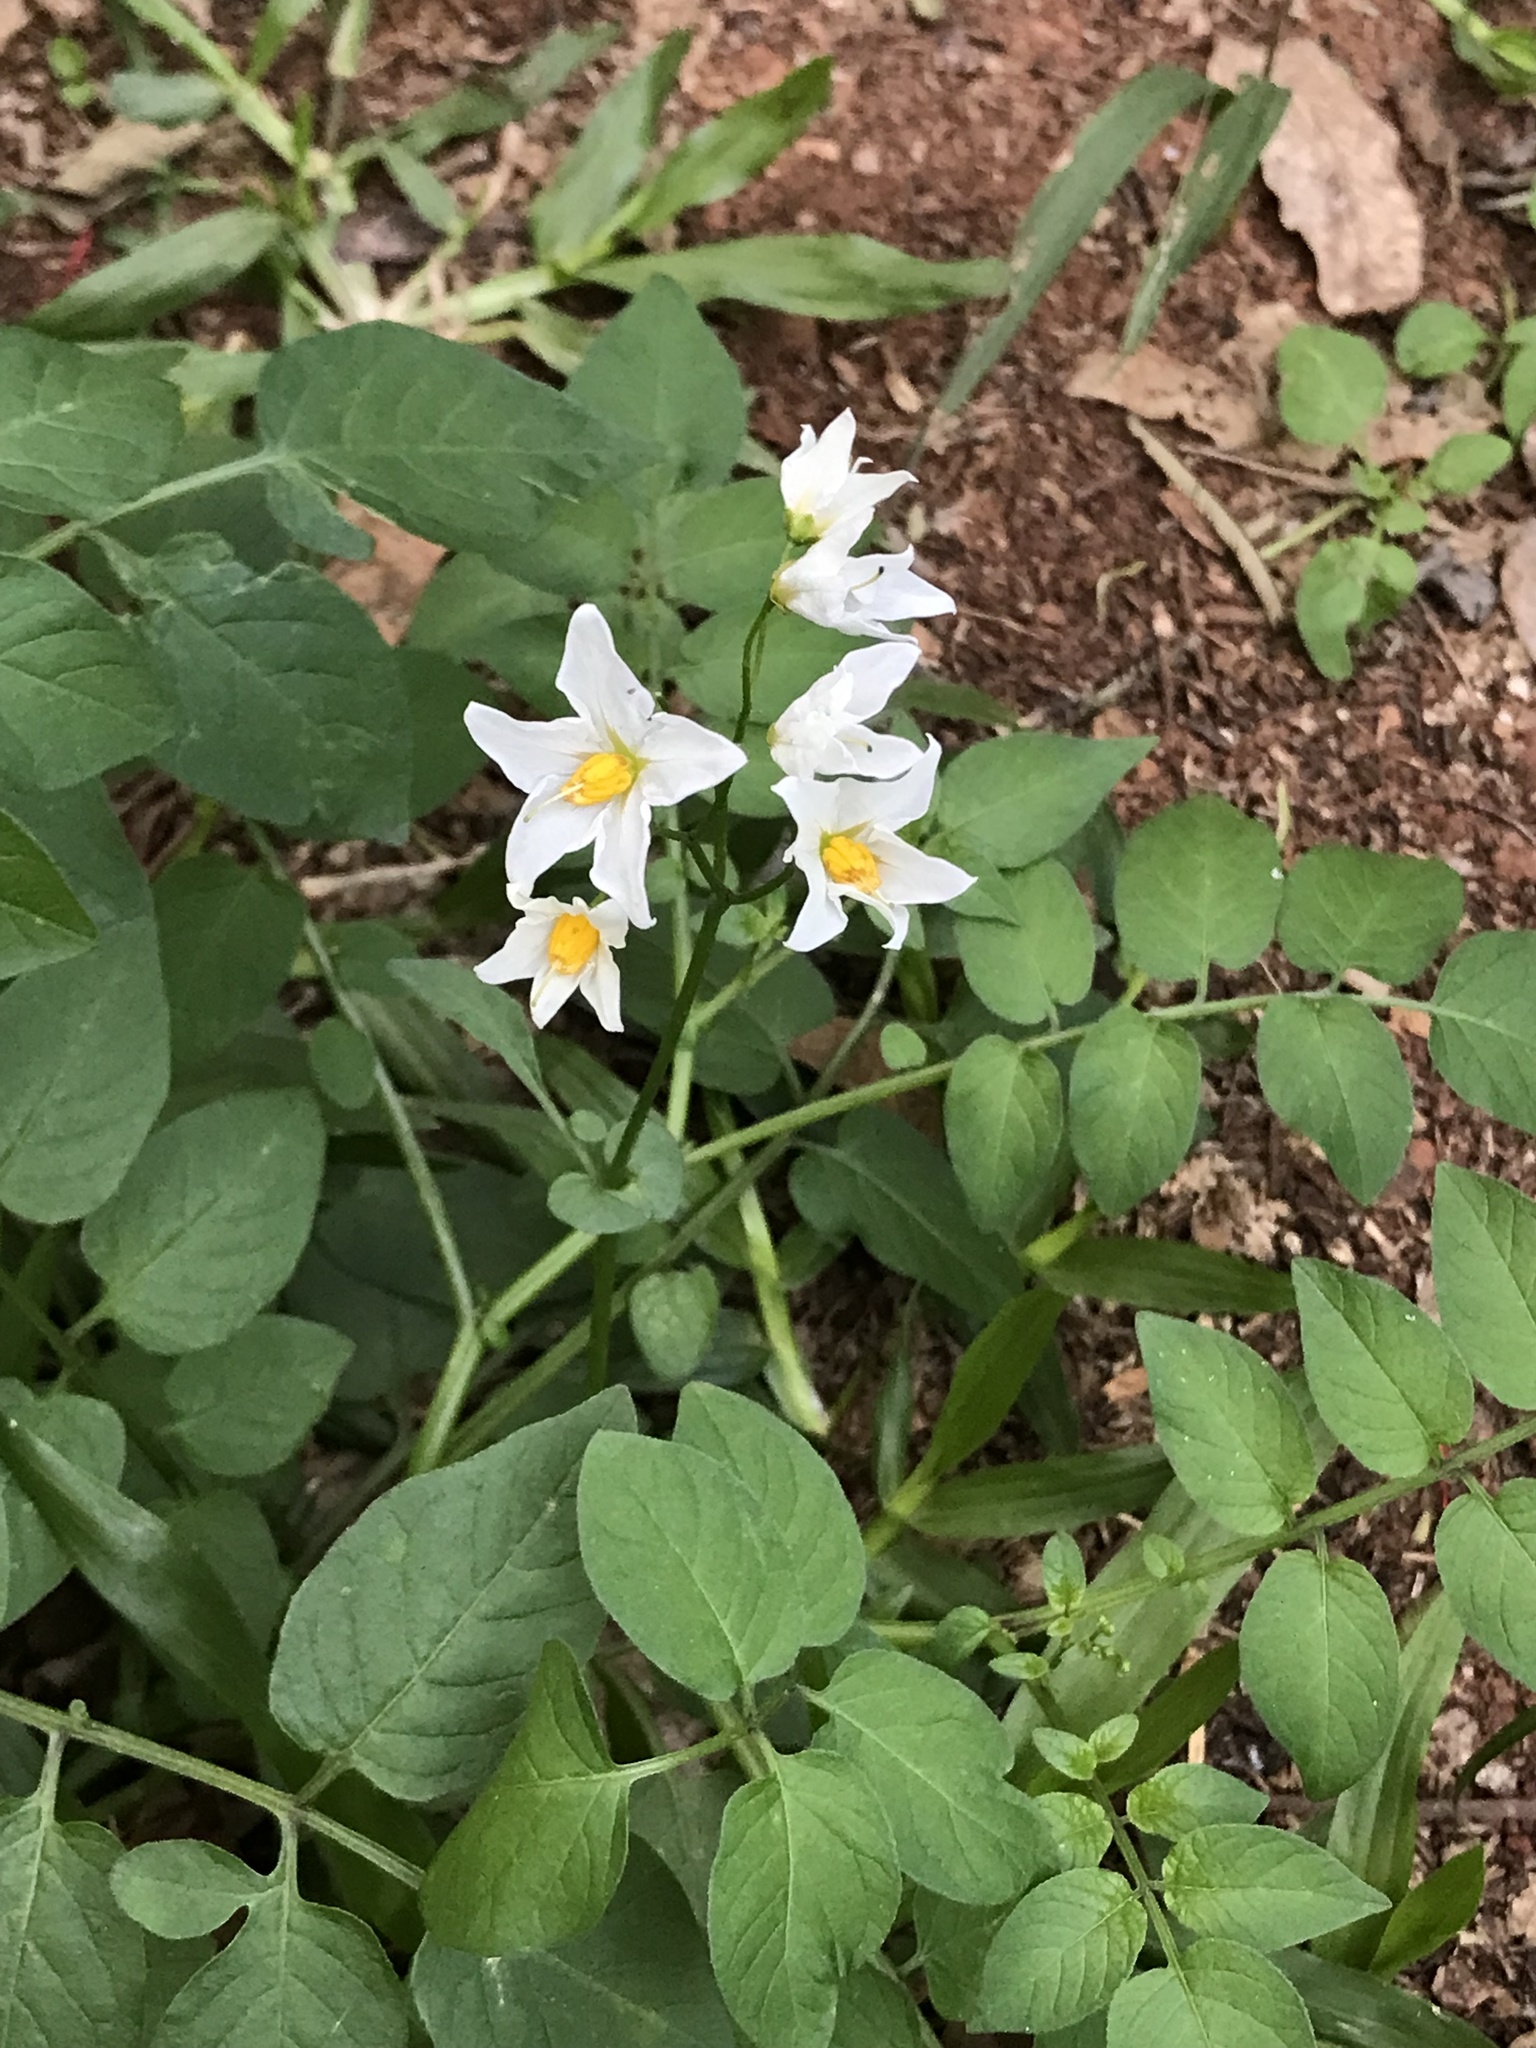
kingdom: Plantae
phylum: Tracheophyta
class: Magnoliopsida
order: Solanales
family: Solanaceae
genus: Solanum
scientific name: Solanum chacoense
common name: Chaco potato
